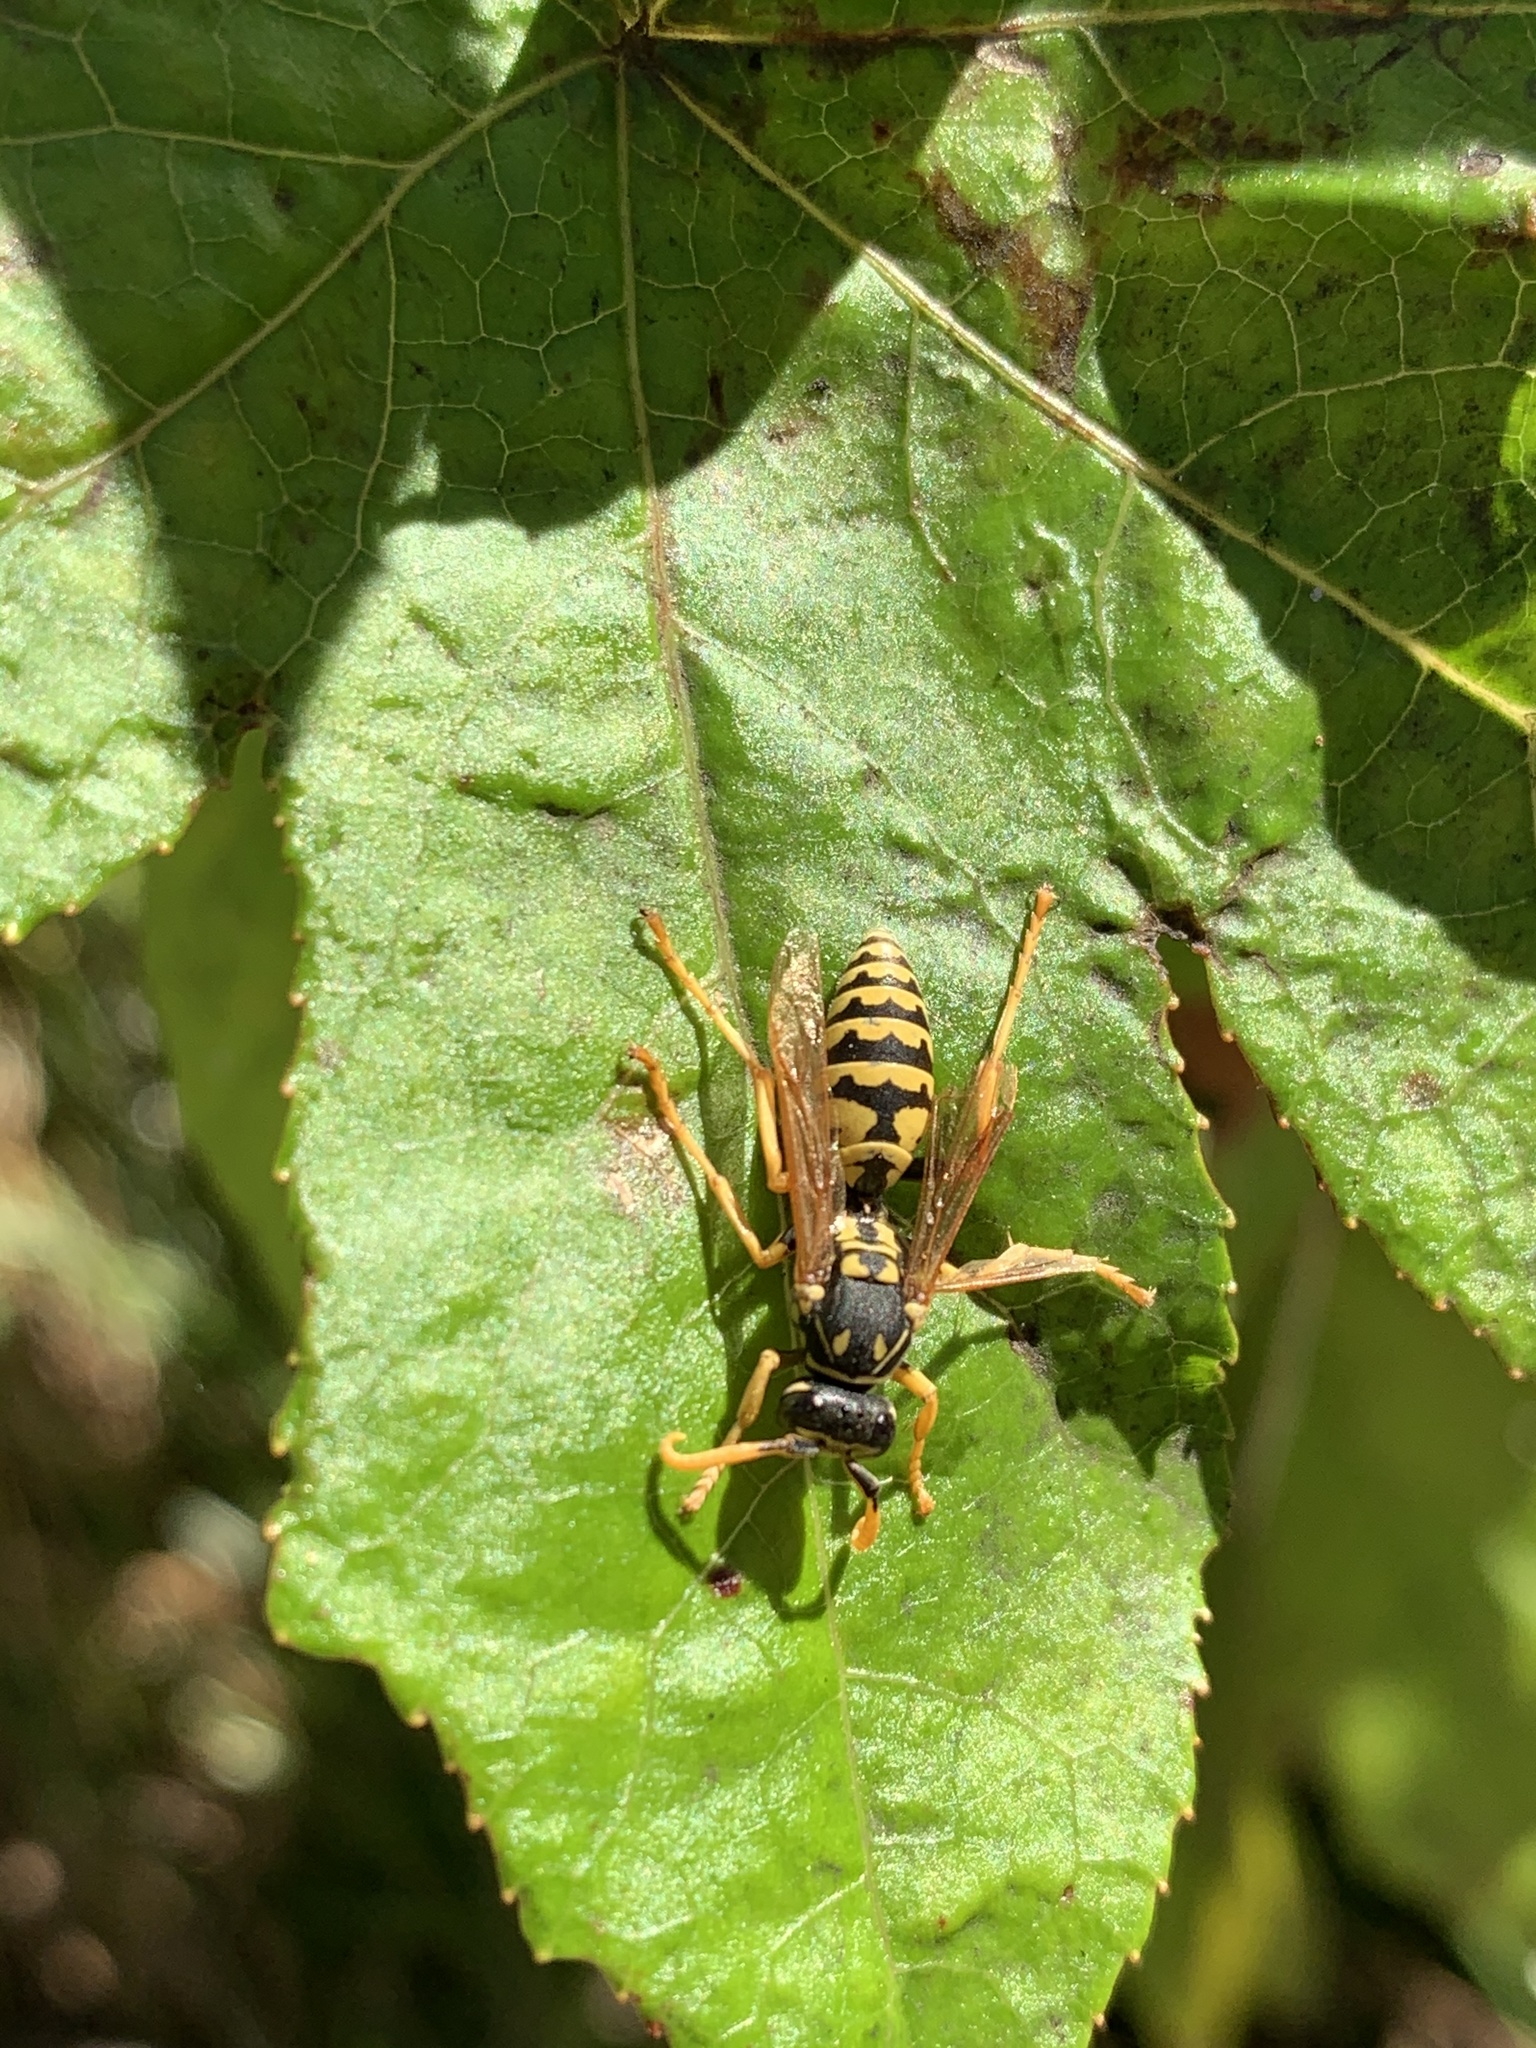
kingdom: Animalia
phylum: Arthropoda
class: Insecta
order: Hymenoptera
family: Eumenidae
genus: Polistes
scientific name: Polistes dominula
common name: Paper wasp
